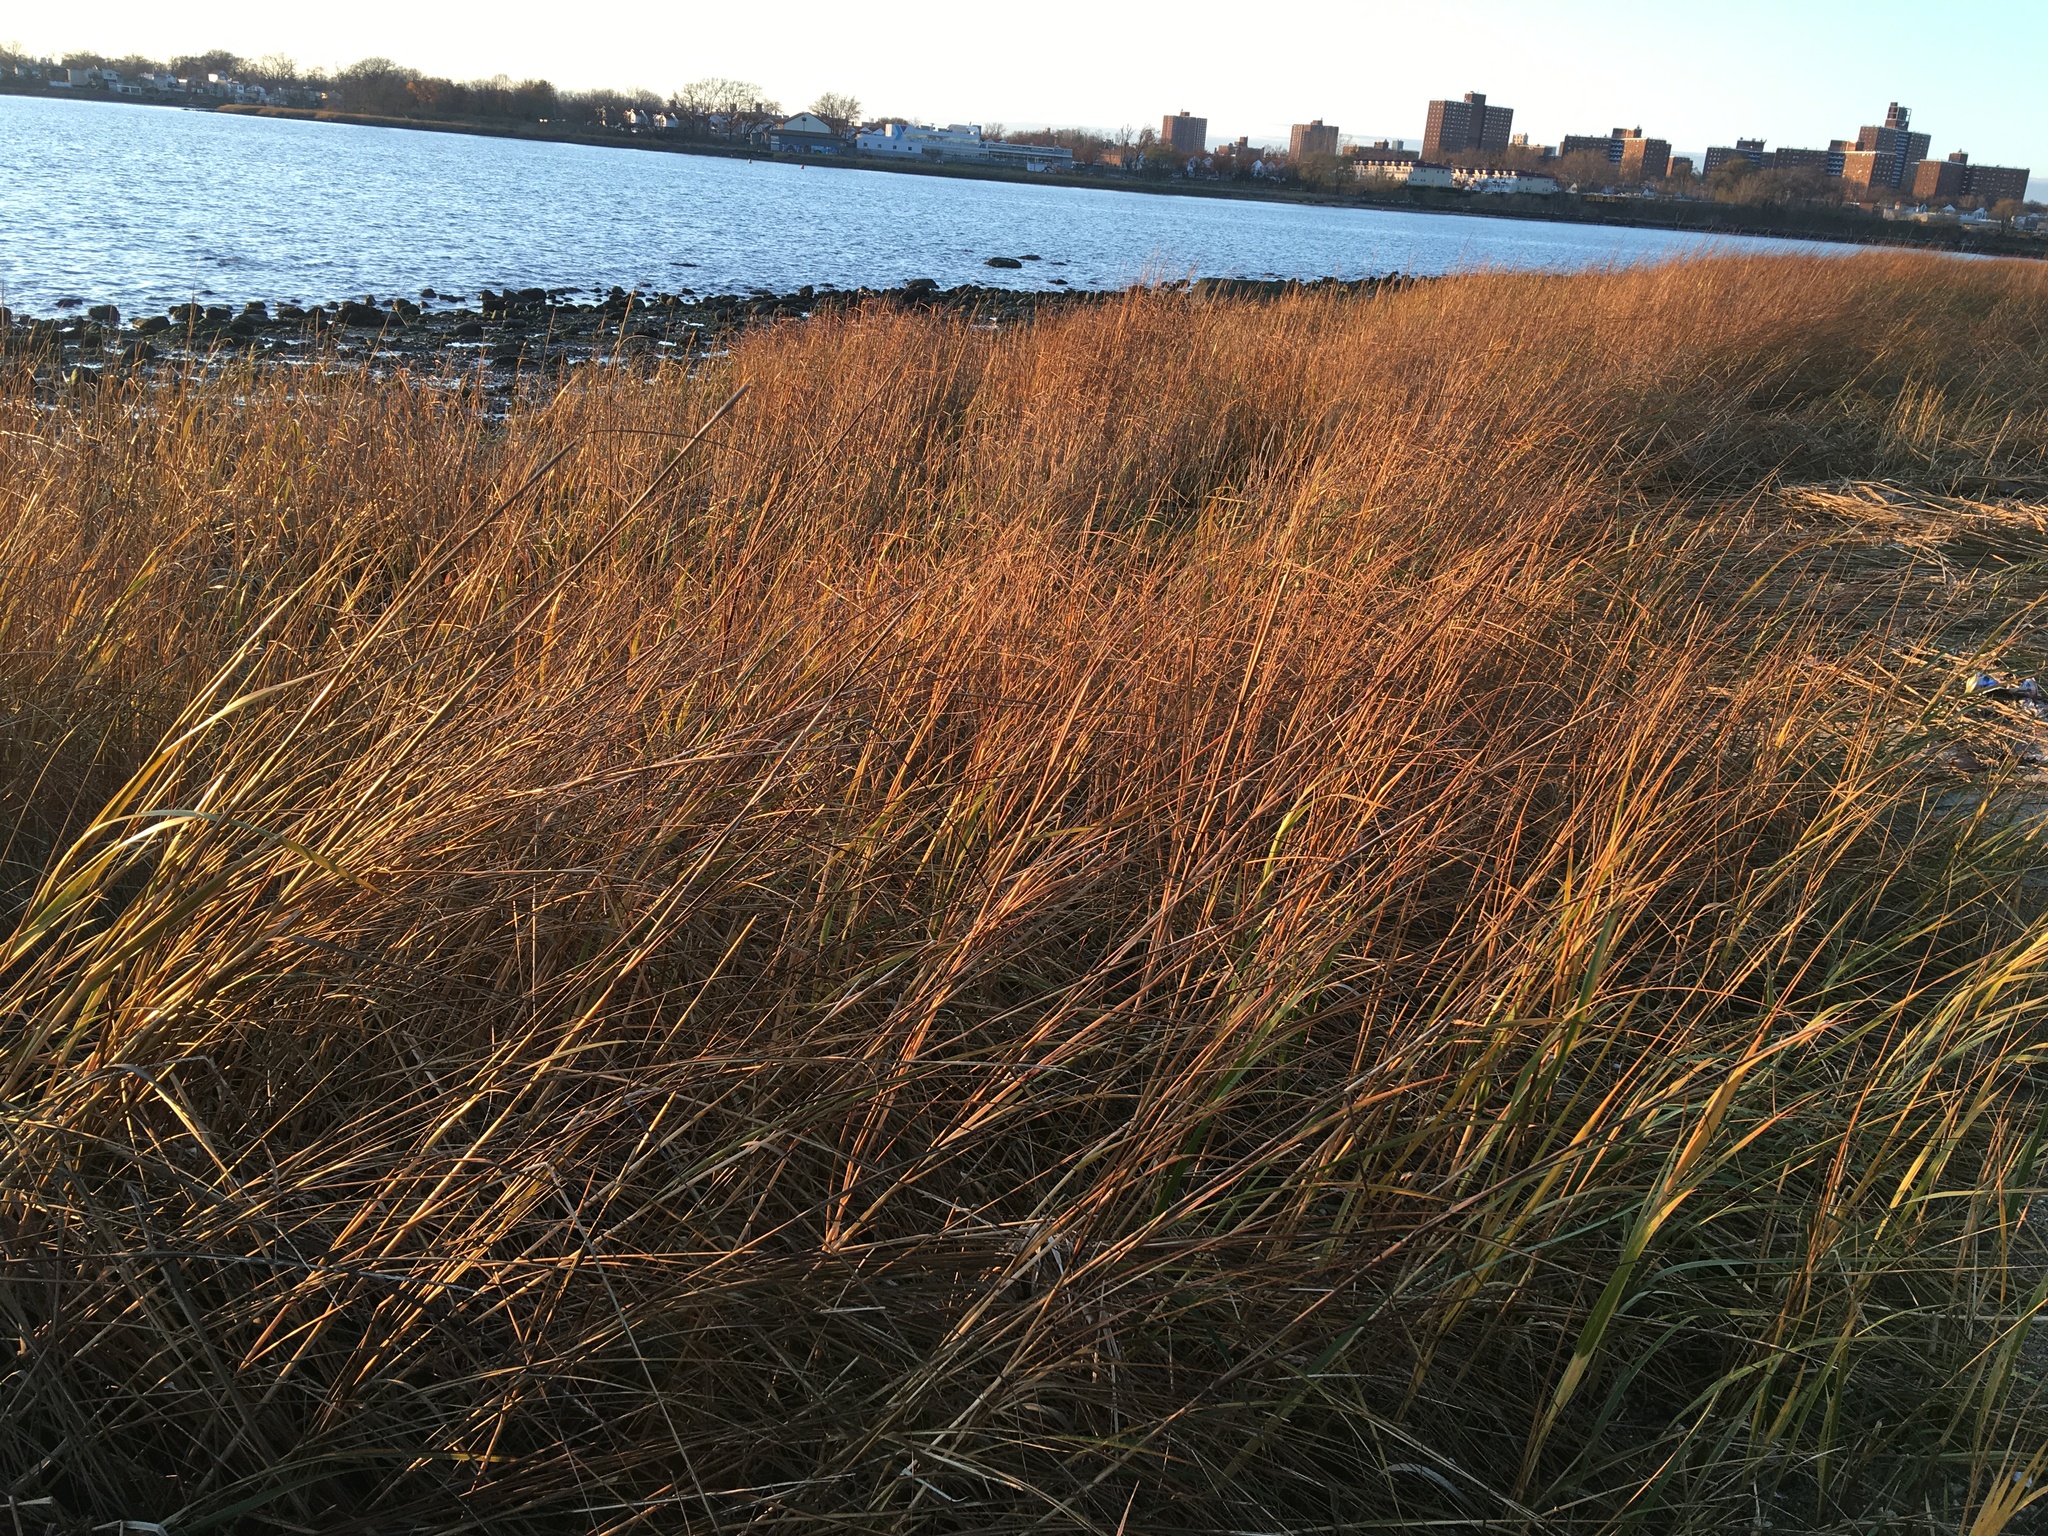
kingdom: Plantae
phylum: Tracheophyta
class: Liliopsida
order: Poales
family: Poaceae
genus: Sporobolus
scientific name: Sporobolus alterniflorus
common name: Atlantic cordgrass
